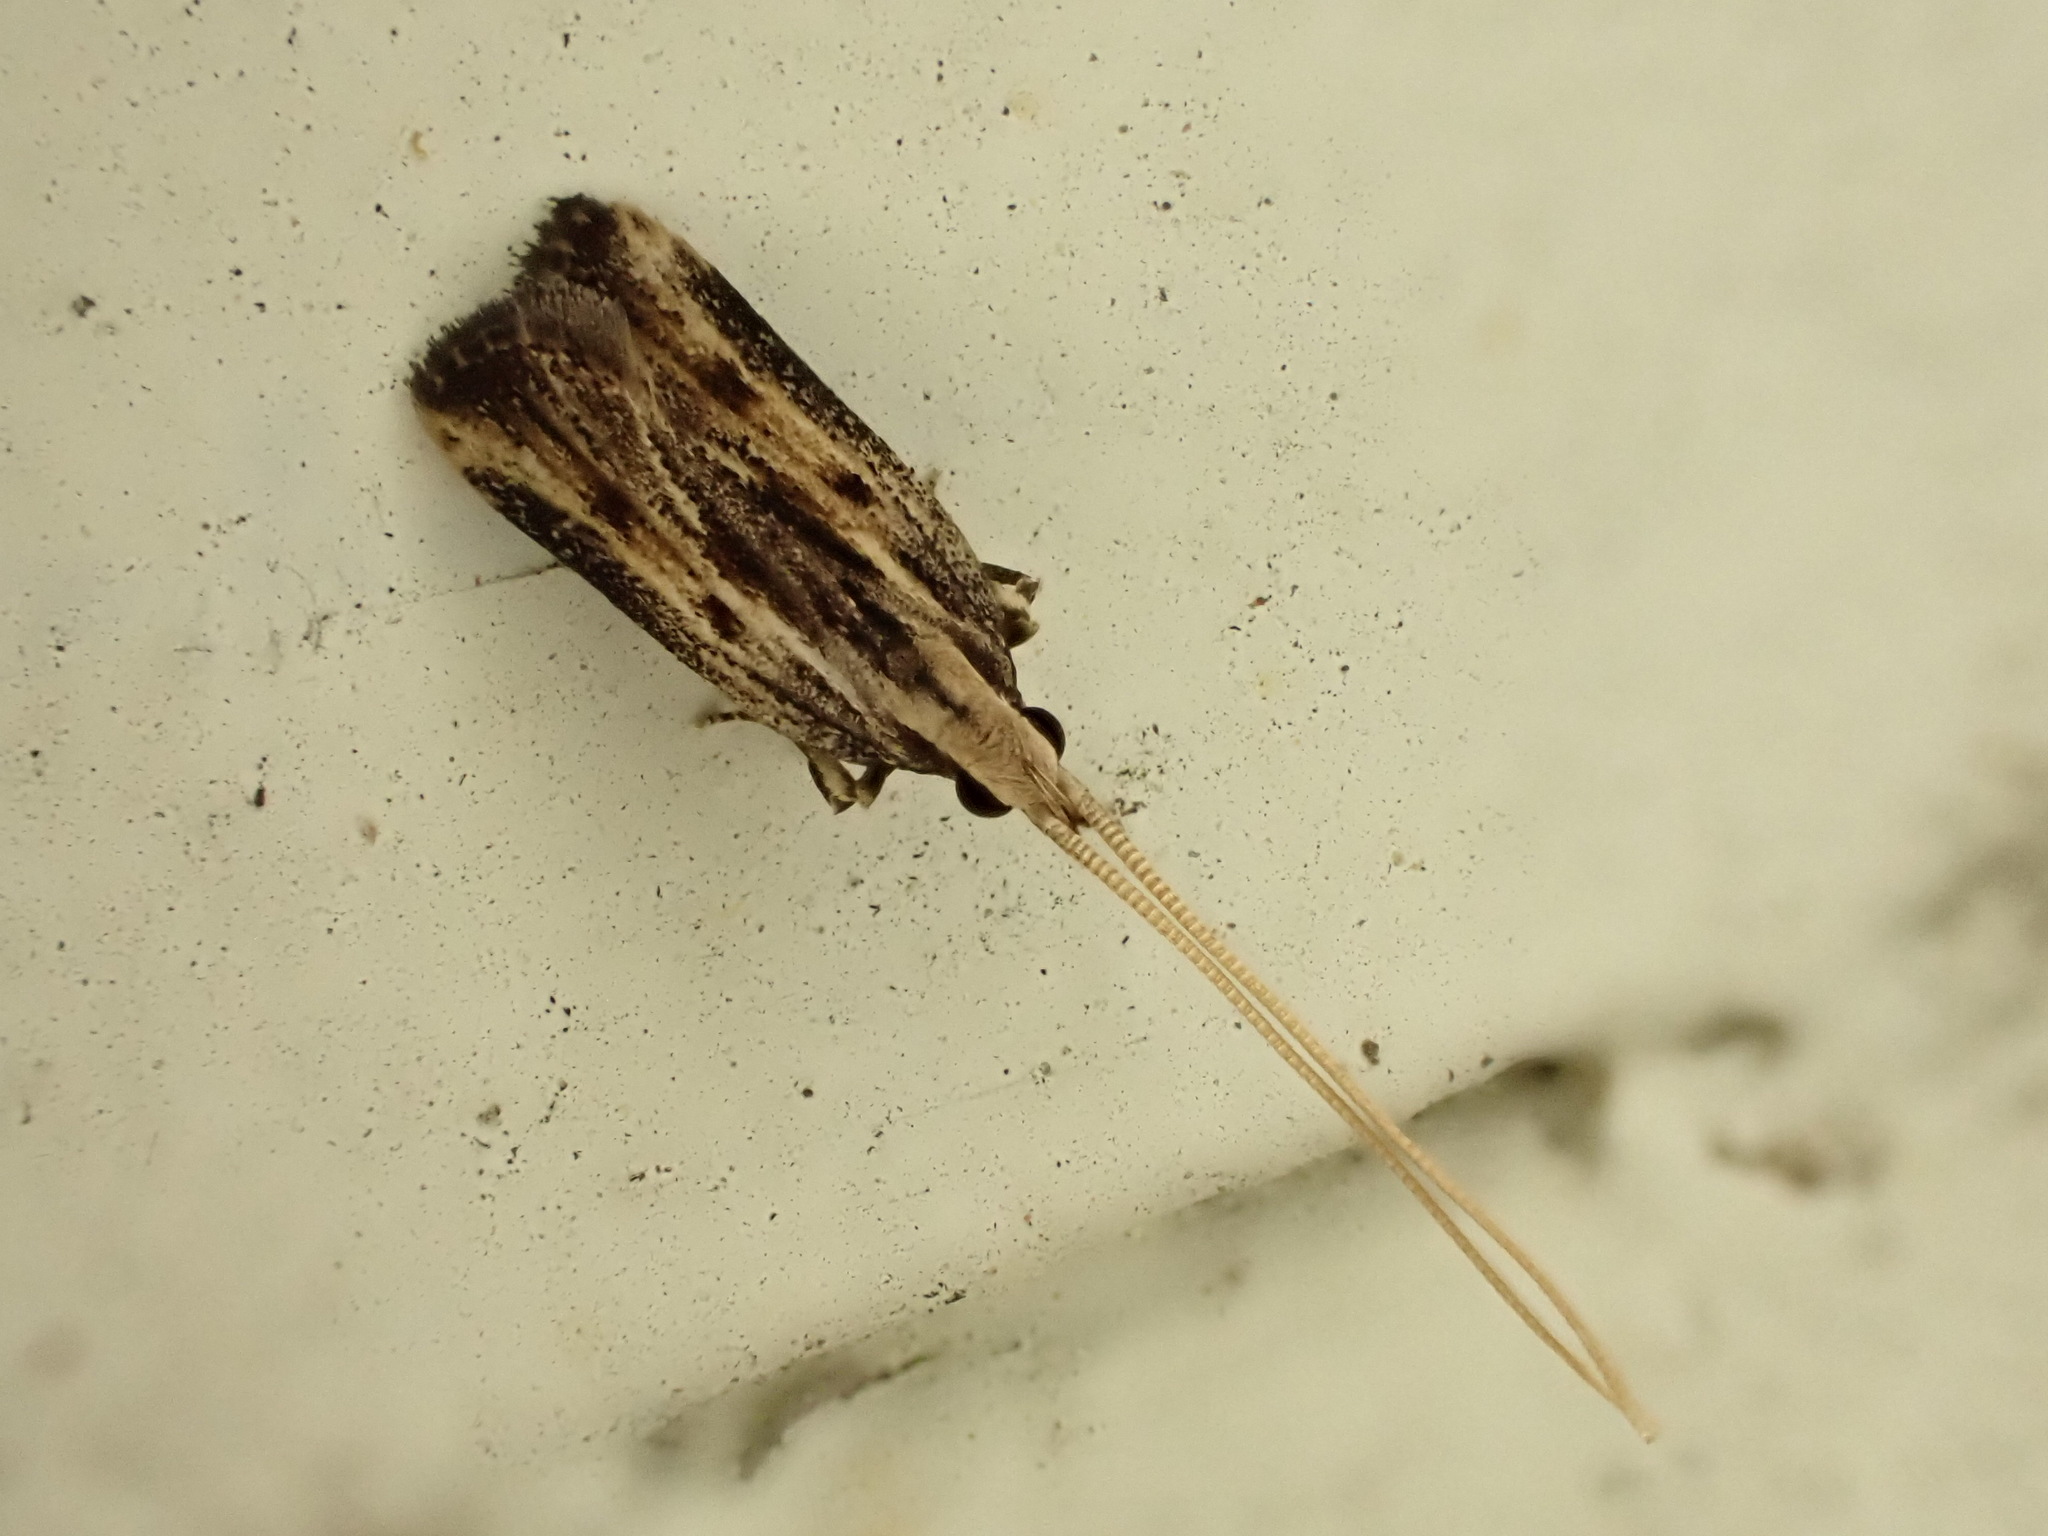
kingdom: Animalia
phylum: Arthropoda
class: Insecta
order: Lepidoptera
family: Lecithoceridae
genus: Sarisophora
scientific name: Sarisophora leucoscia
